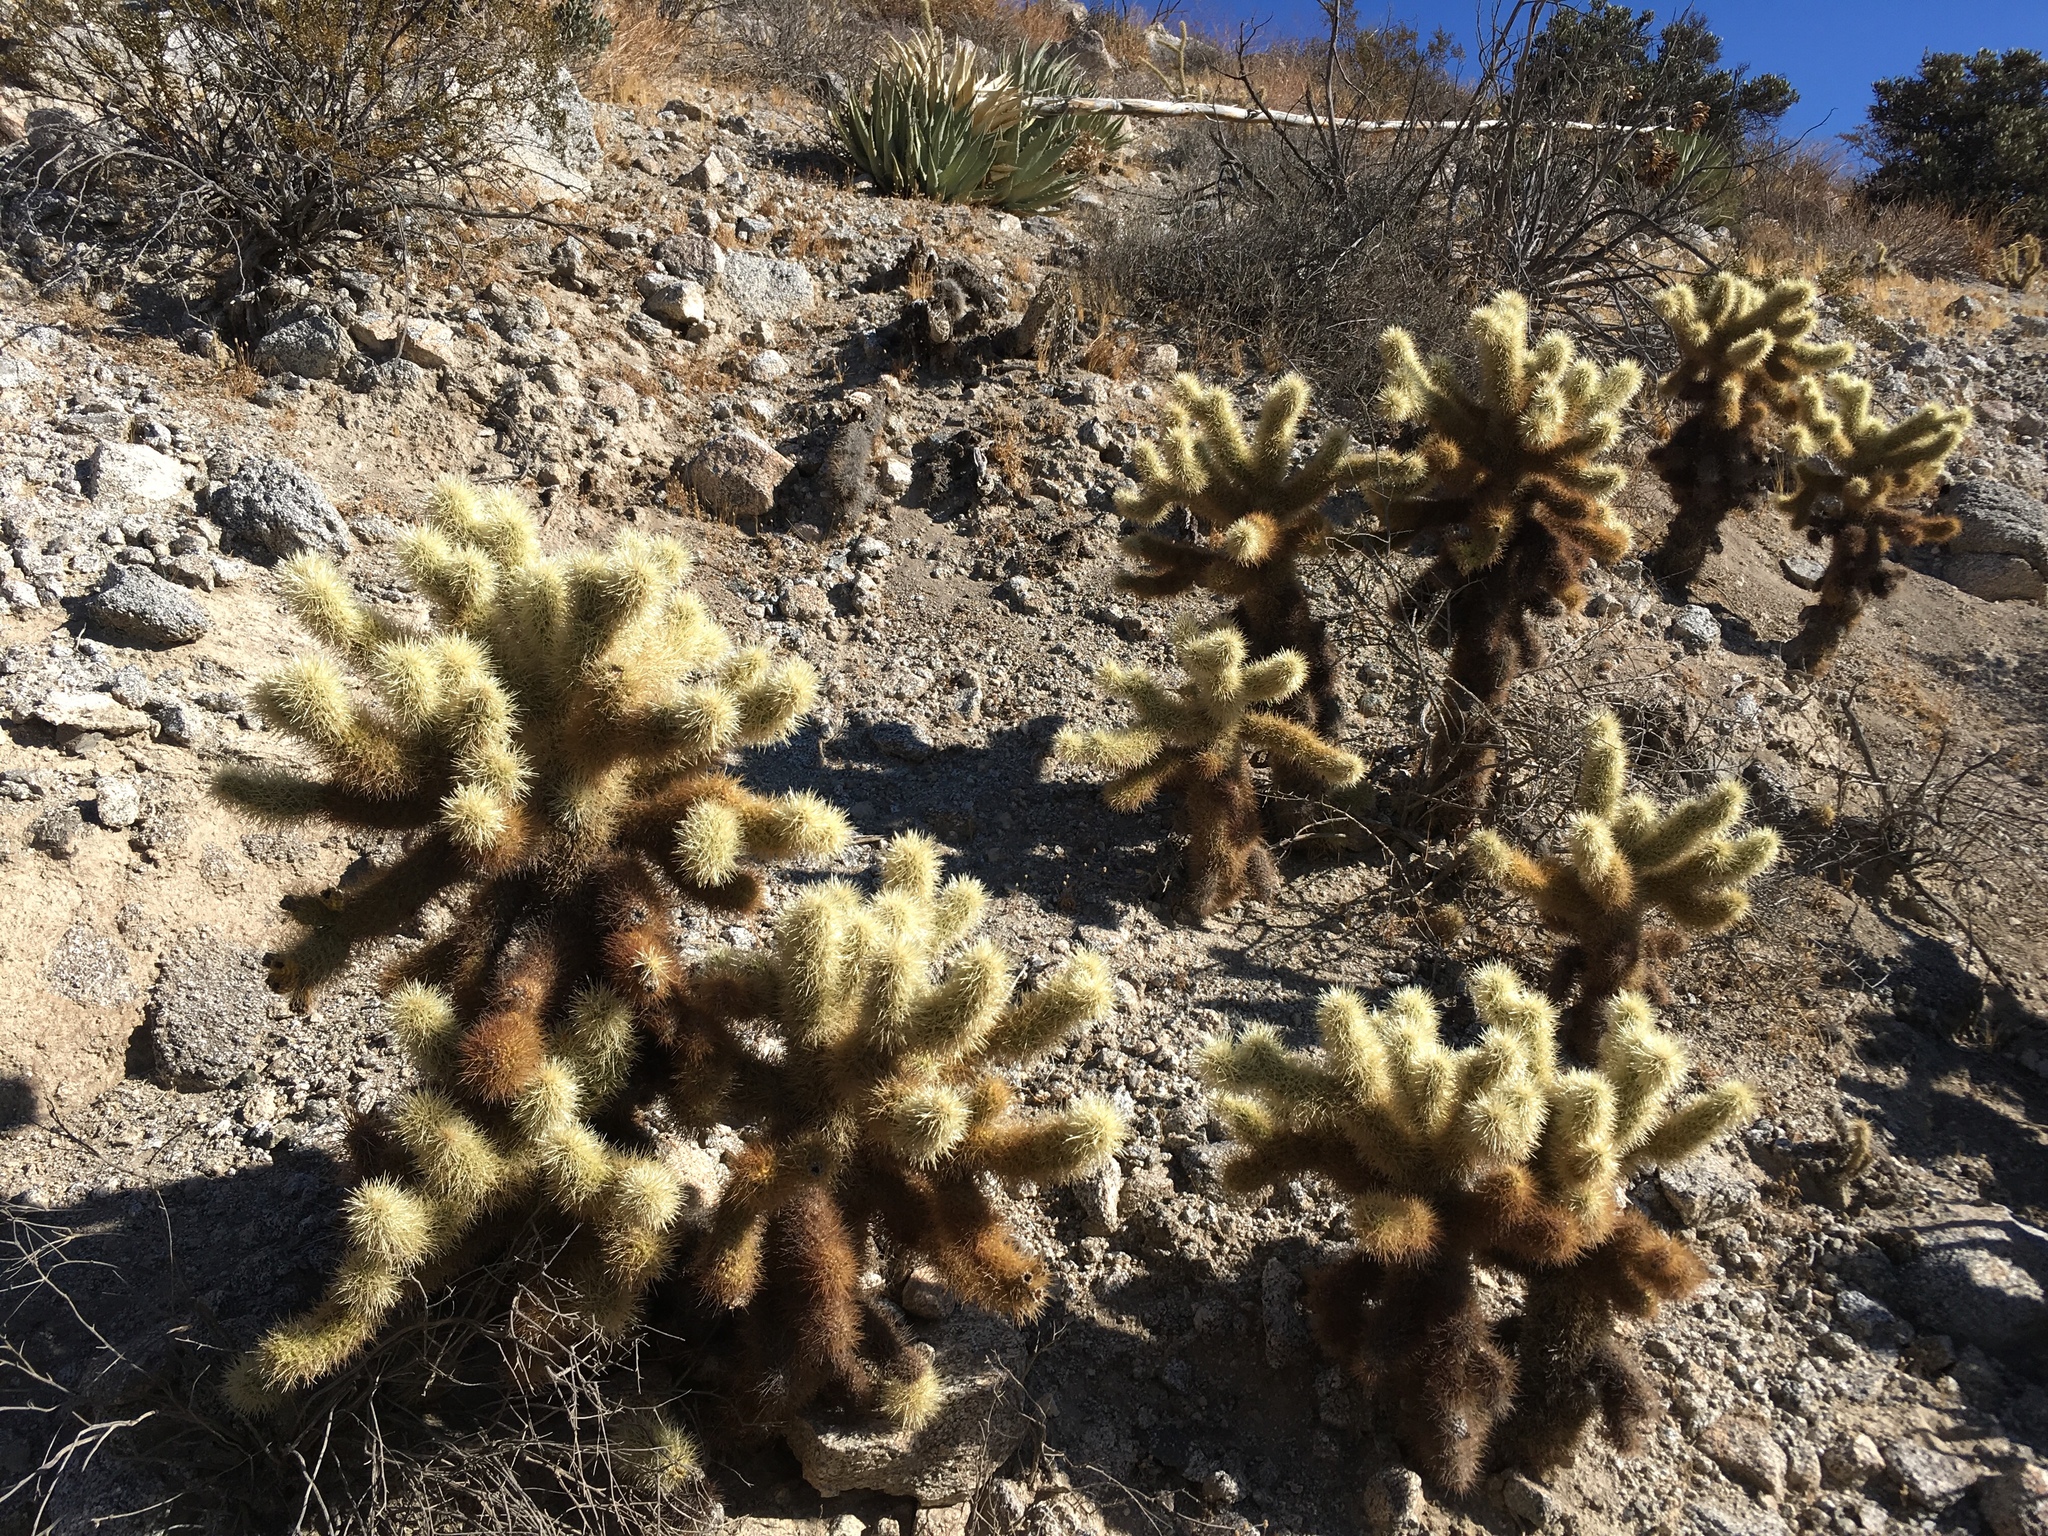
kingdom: Plantae
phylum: Tracheophyta
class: Magnoliopsida
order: Caryophyllales
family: Cactaceae
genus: Cylindropuntia
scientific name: Cylindropuntia fosbergii
